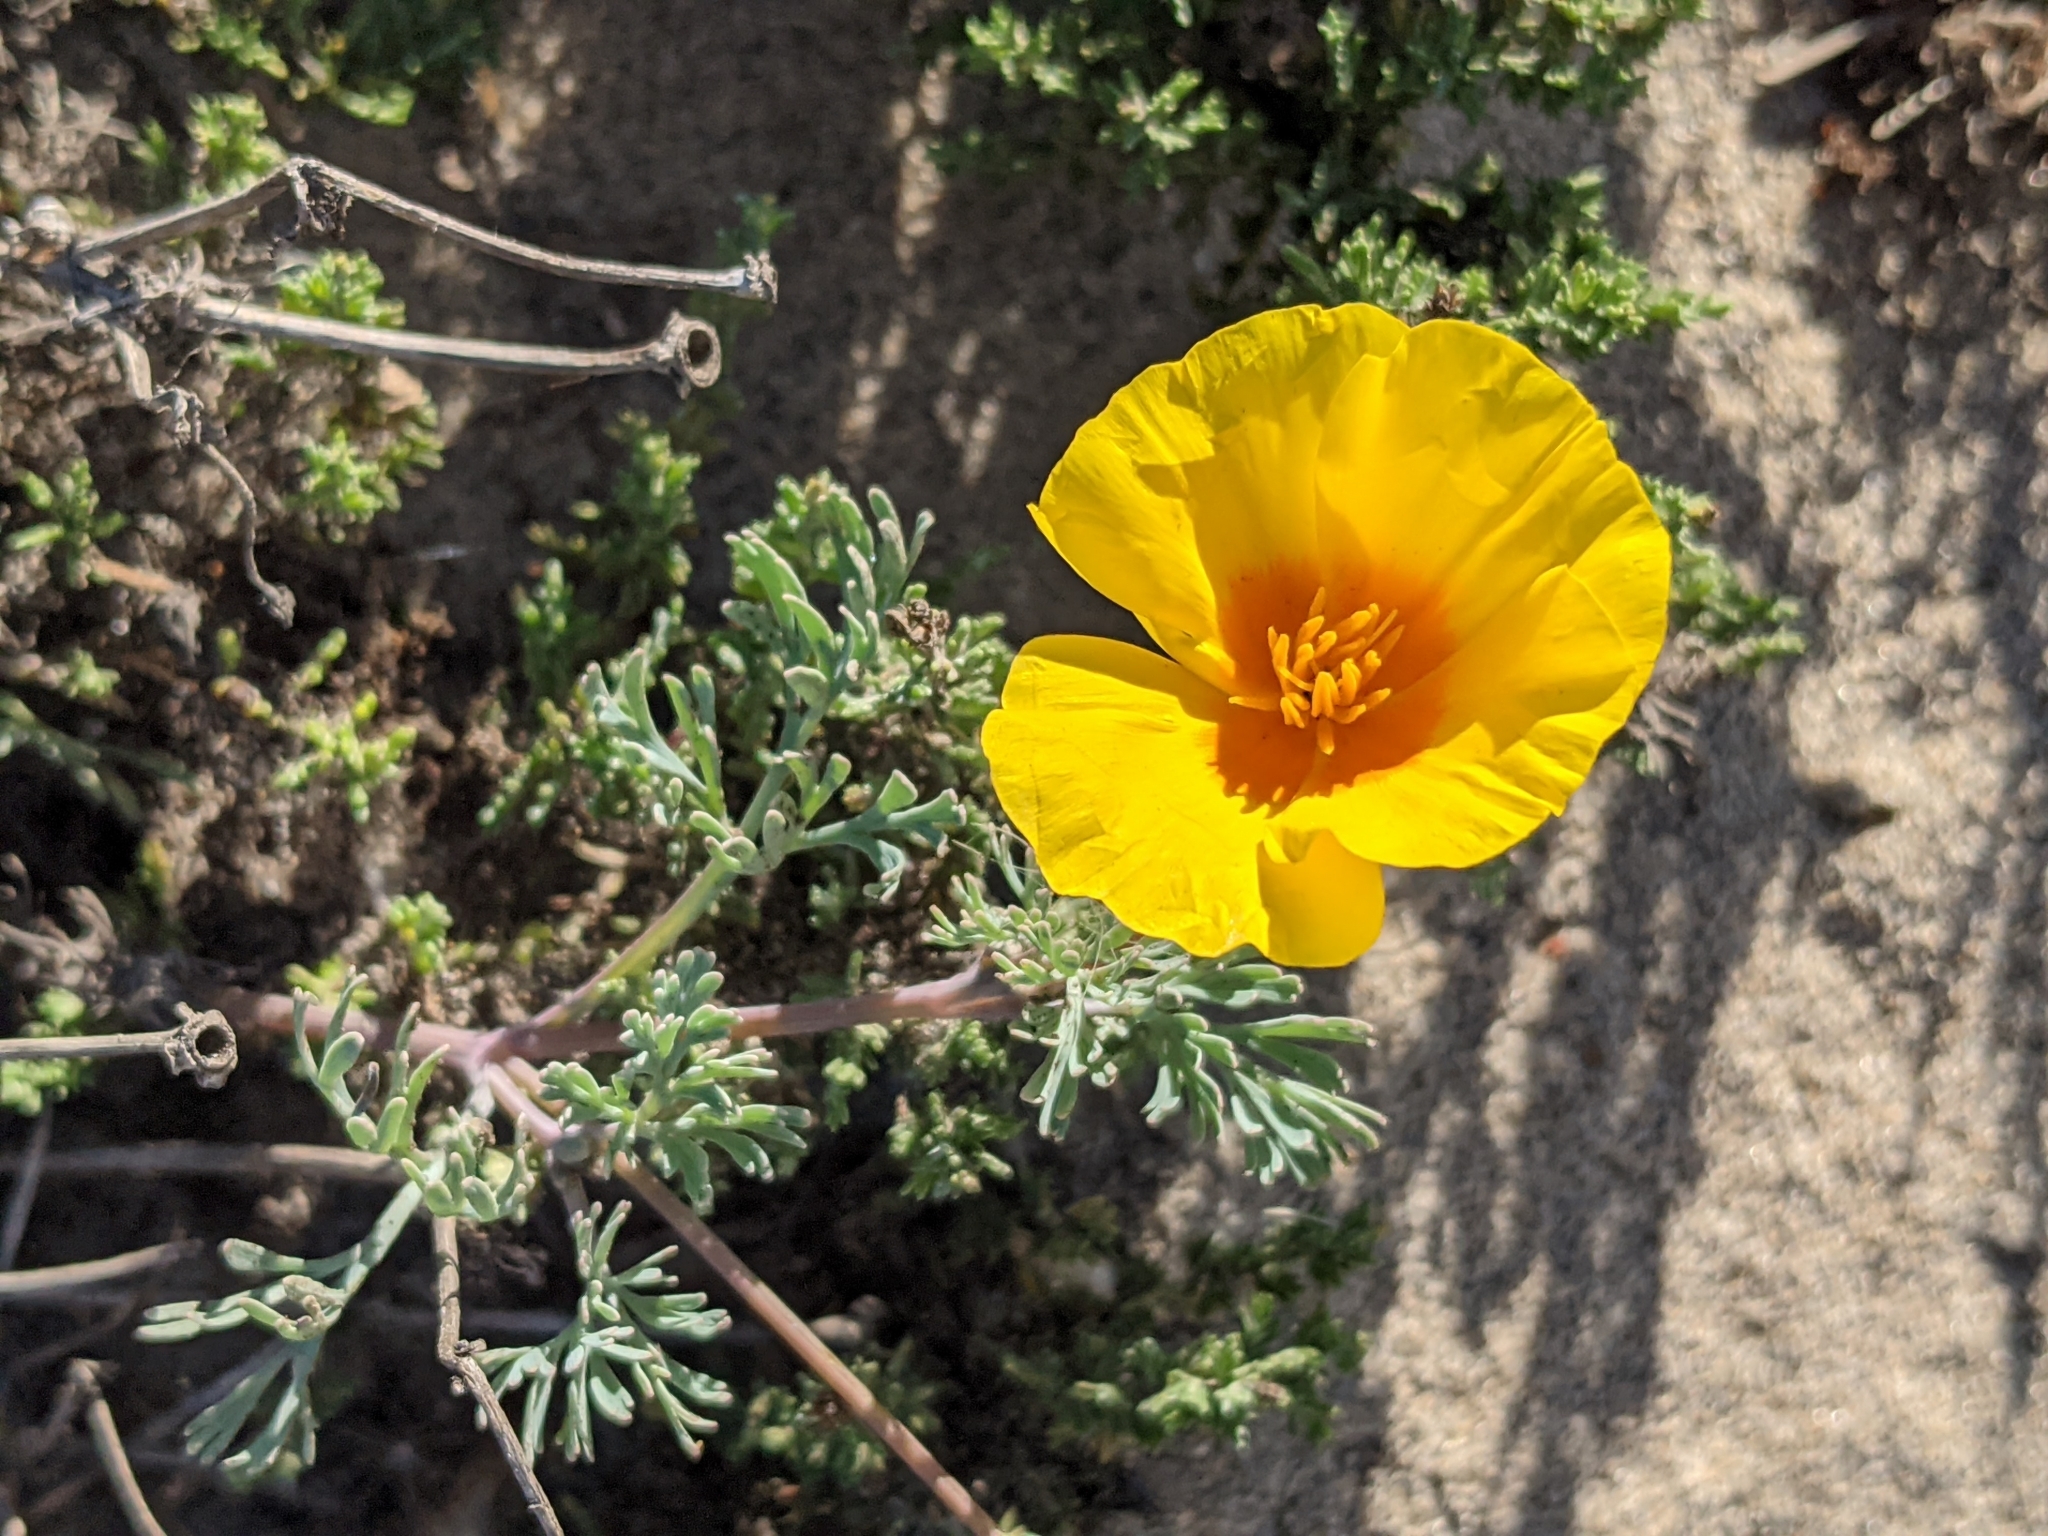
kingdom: Plantae
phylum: Tracheophyta
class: Magnoliopsida
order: Ranunculales
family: Papaveraceae
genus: Eschscholzia
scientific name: Eschscholzia californica
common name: California poppy
